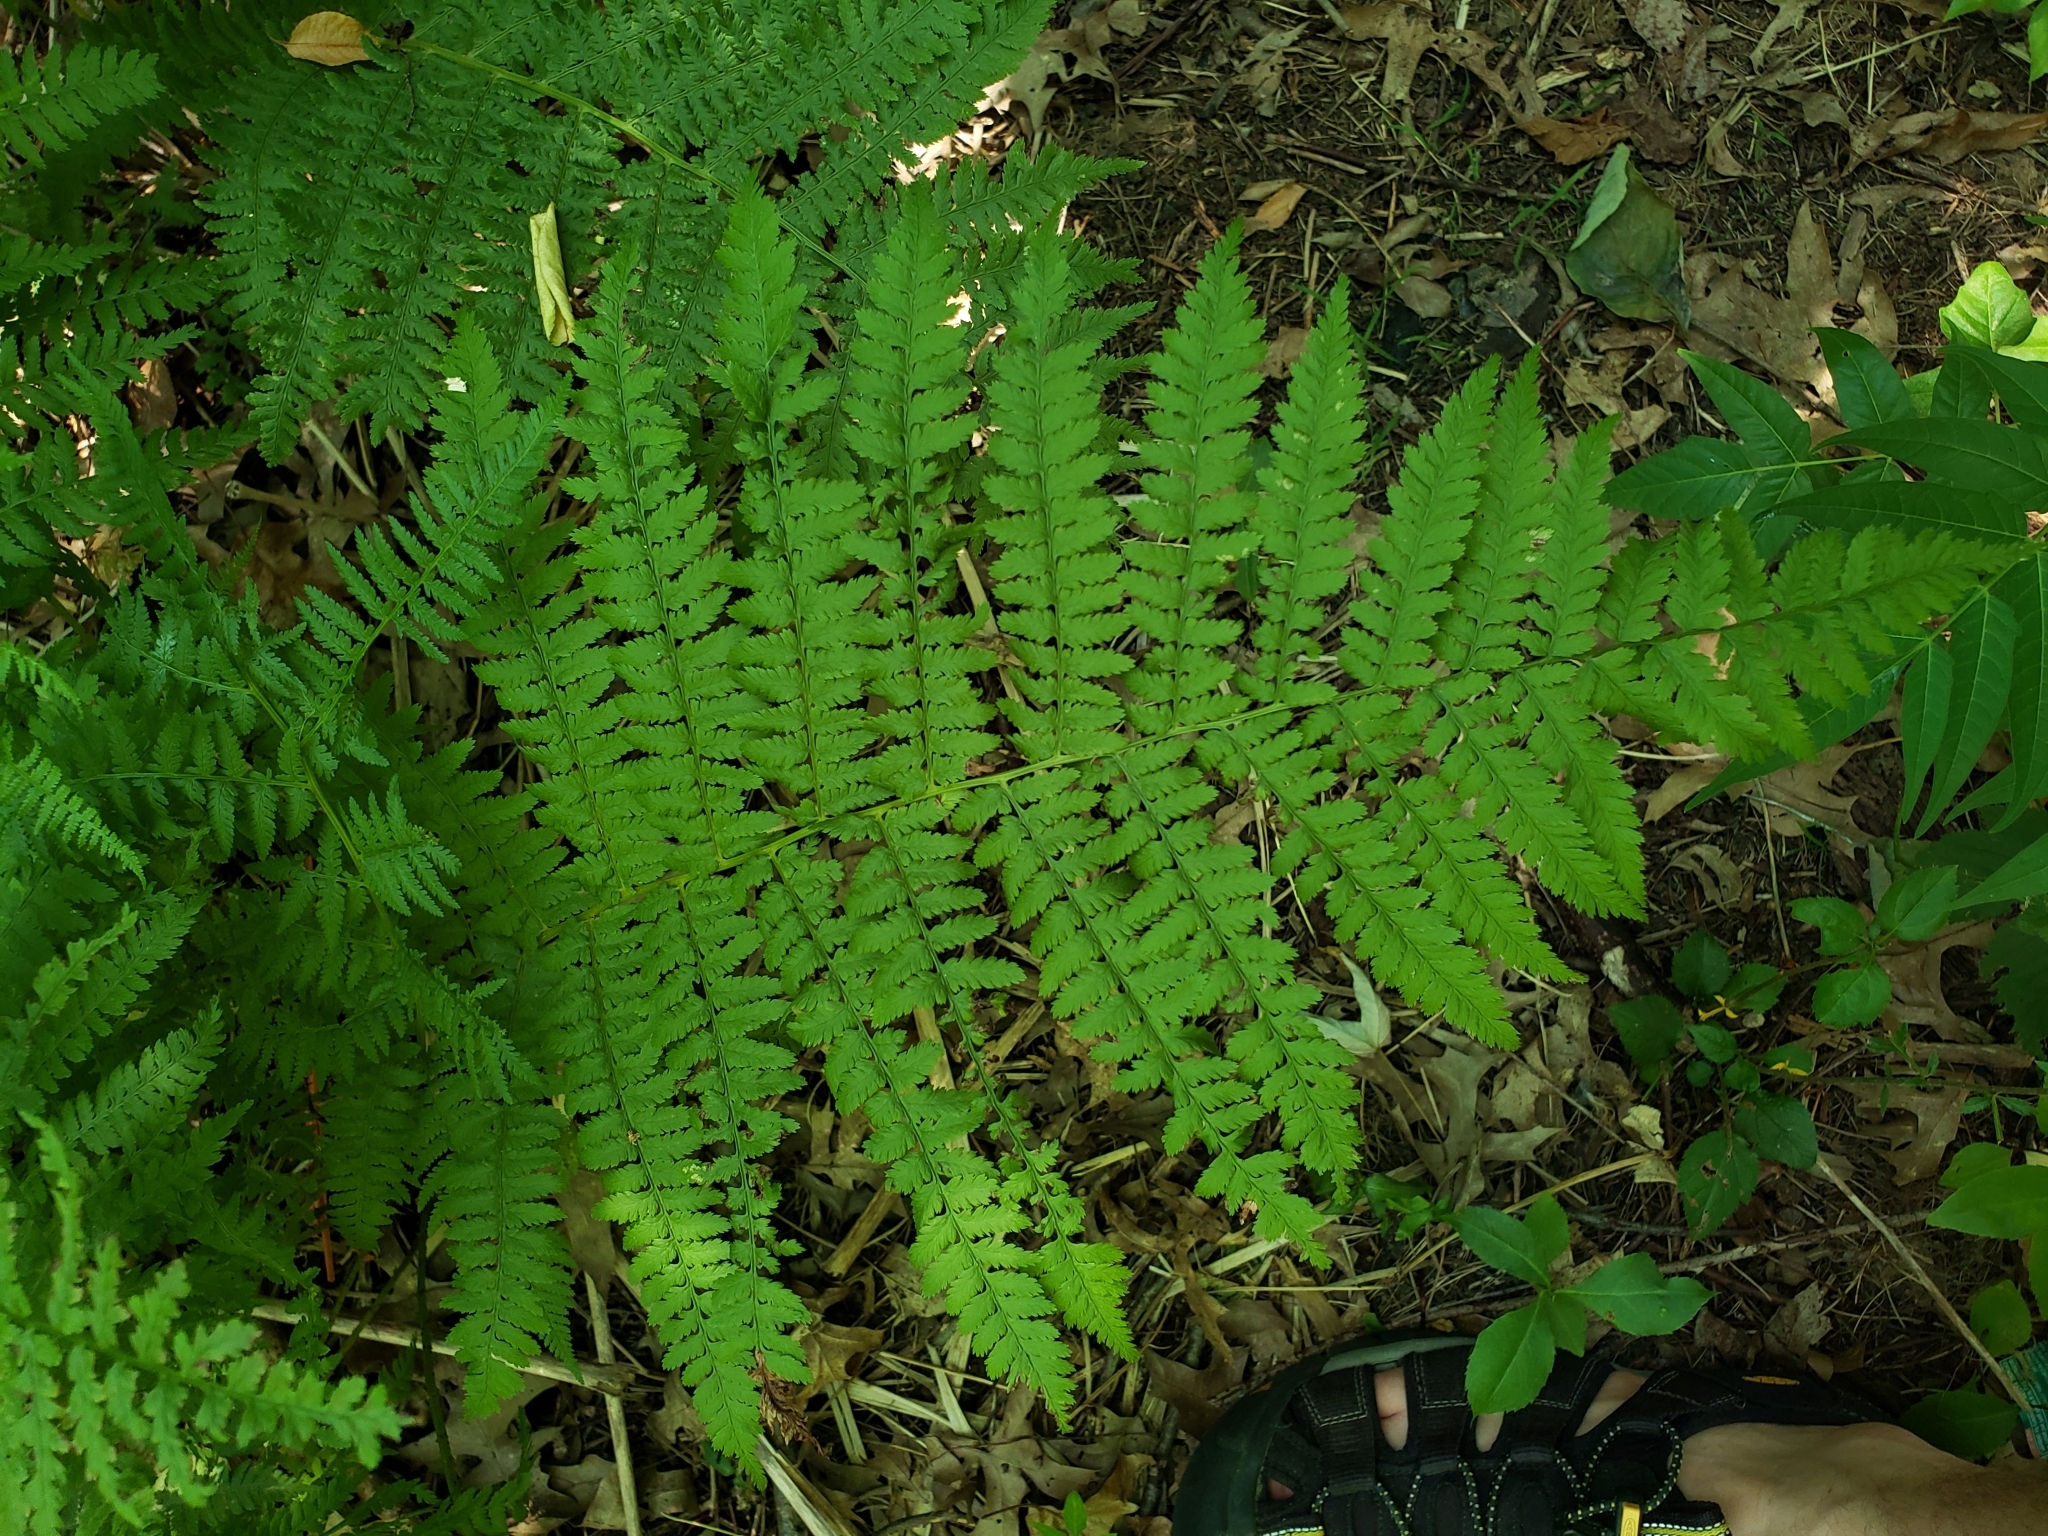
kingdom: Plantae
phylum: Tracheophyta
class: Polypodiopsida
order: Polypodiales
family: Athyriaceae
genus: Athyrium
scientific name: Athyrium angustum
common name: Northern lady fern
